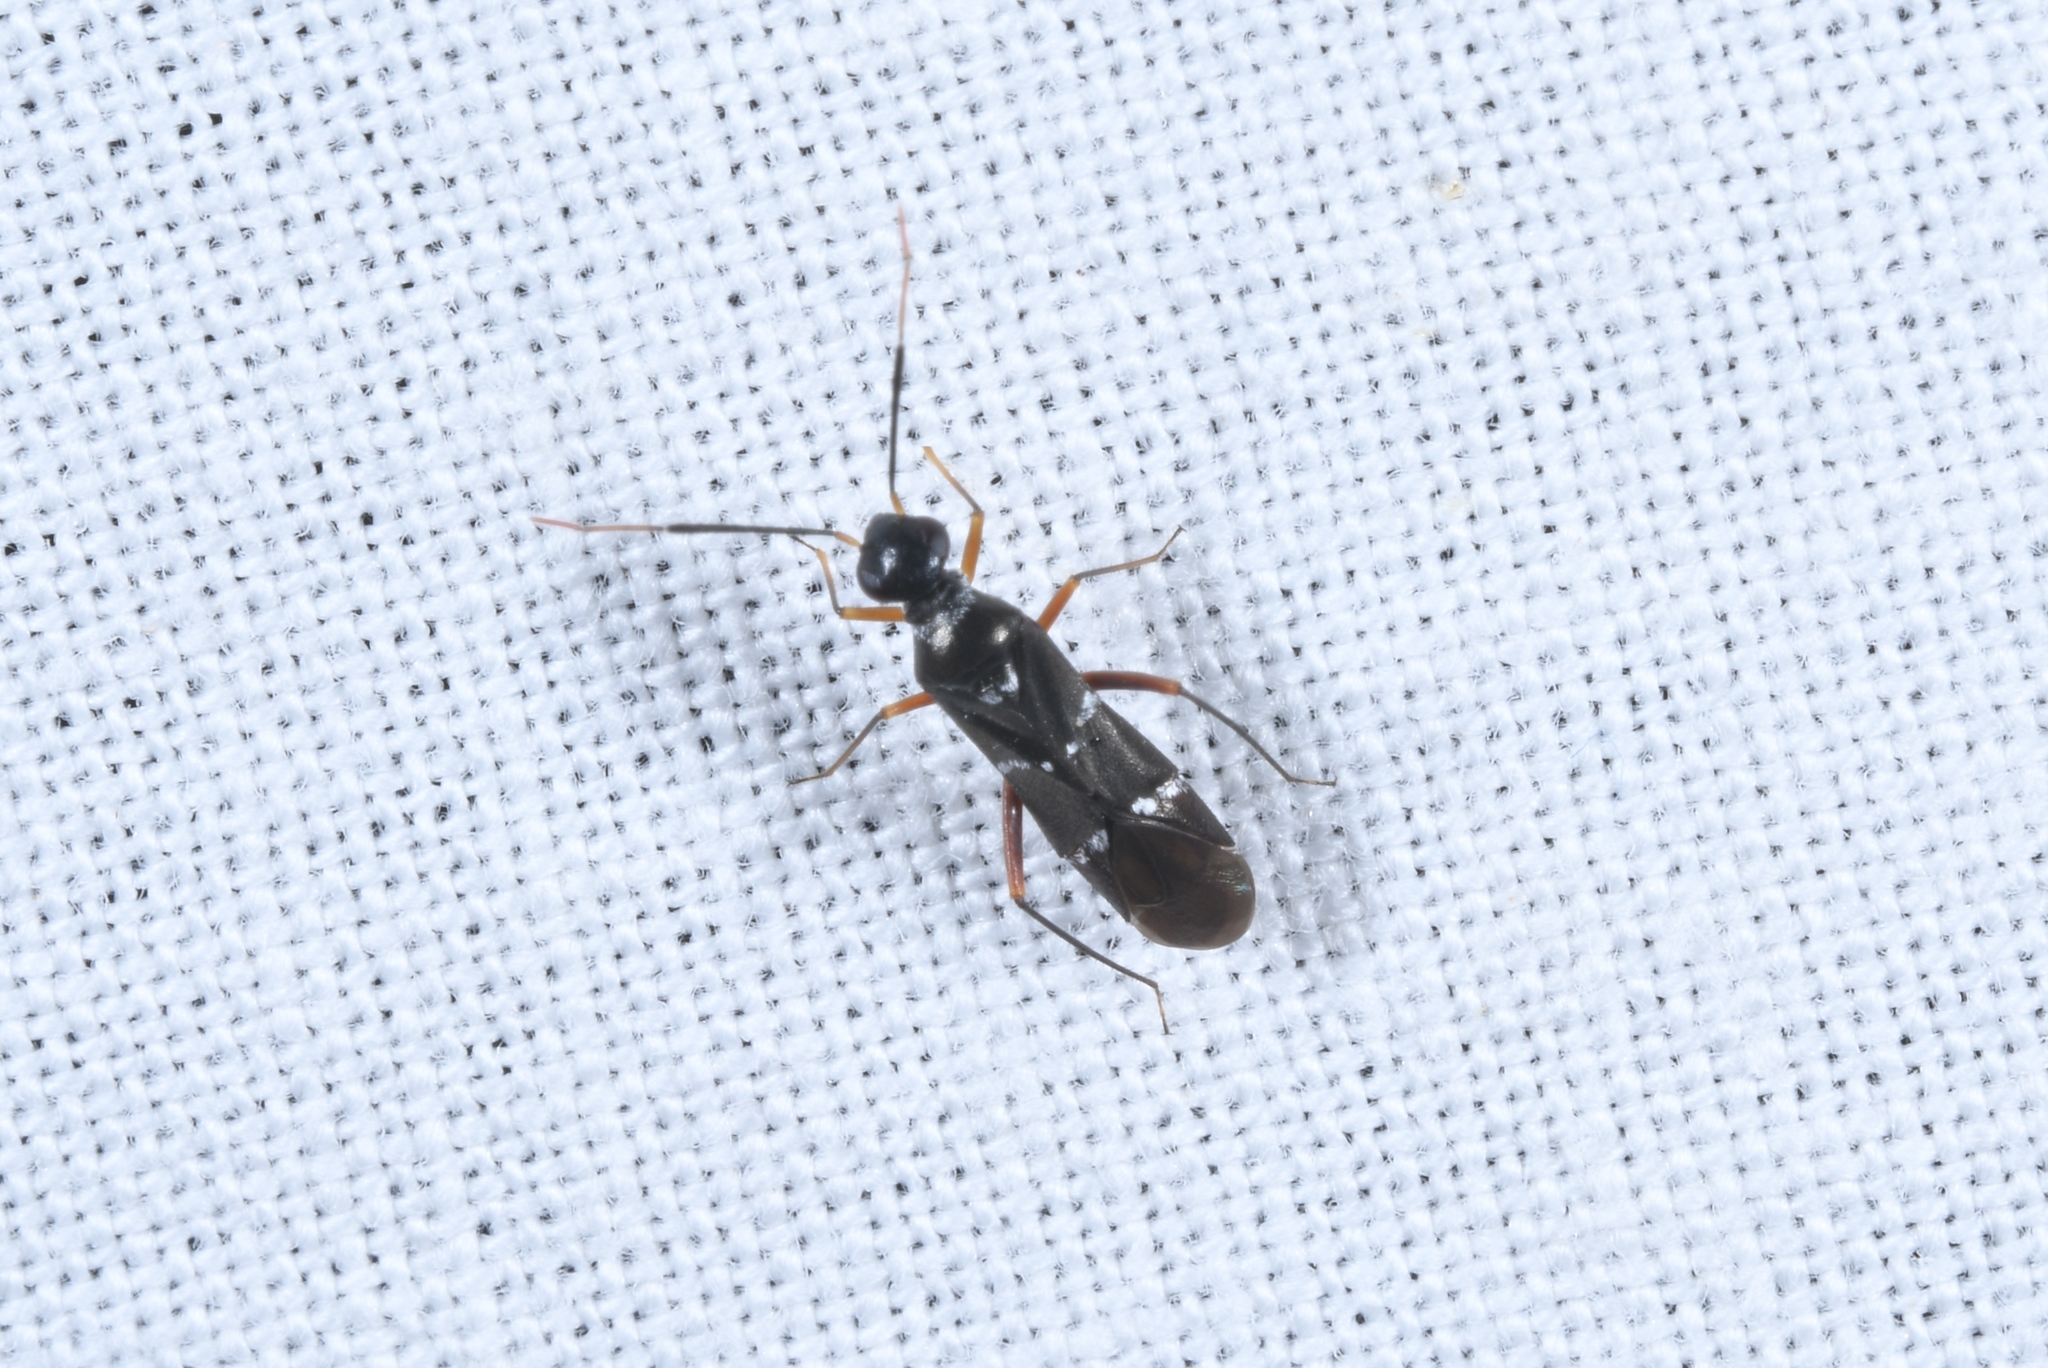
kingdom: Animalia
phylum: Arthropoda
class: Insecta
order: Hemiptera
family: Miridae
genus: Globiceps
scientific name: Globiceps sphaegiformis
